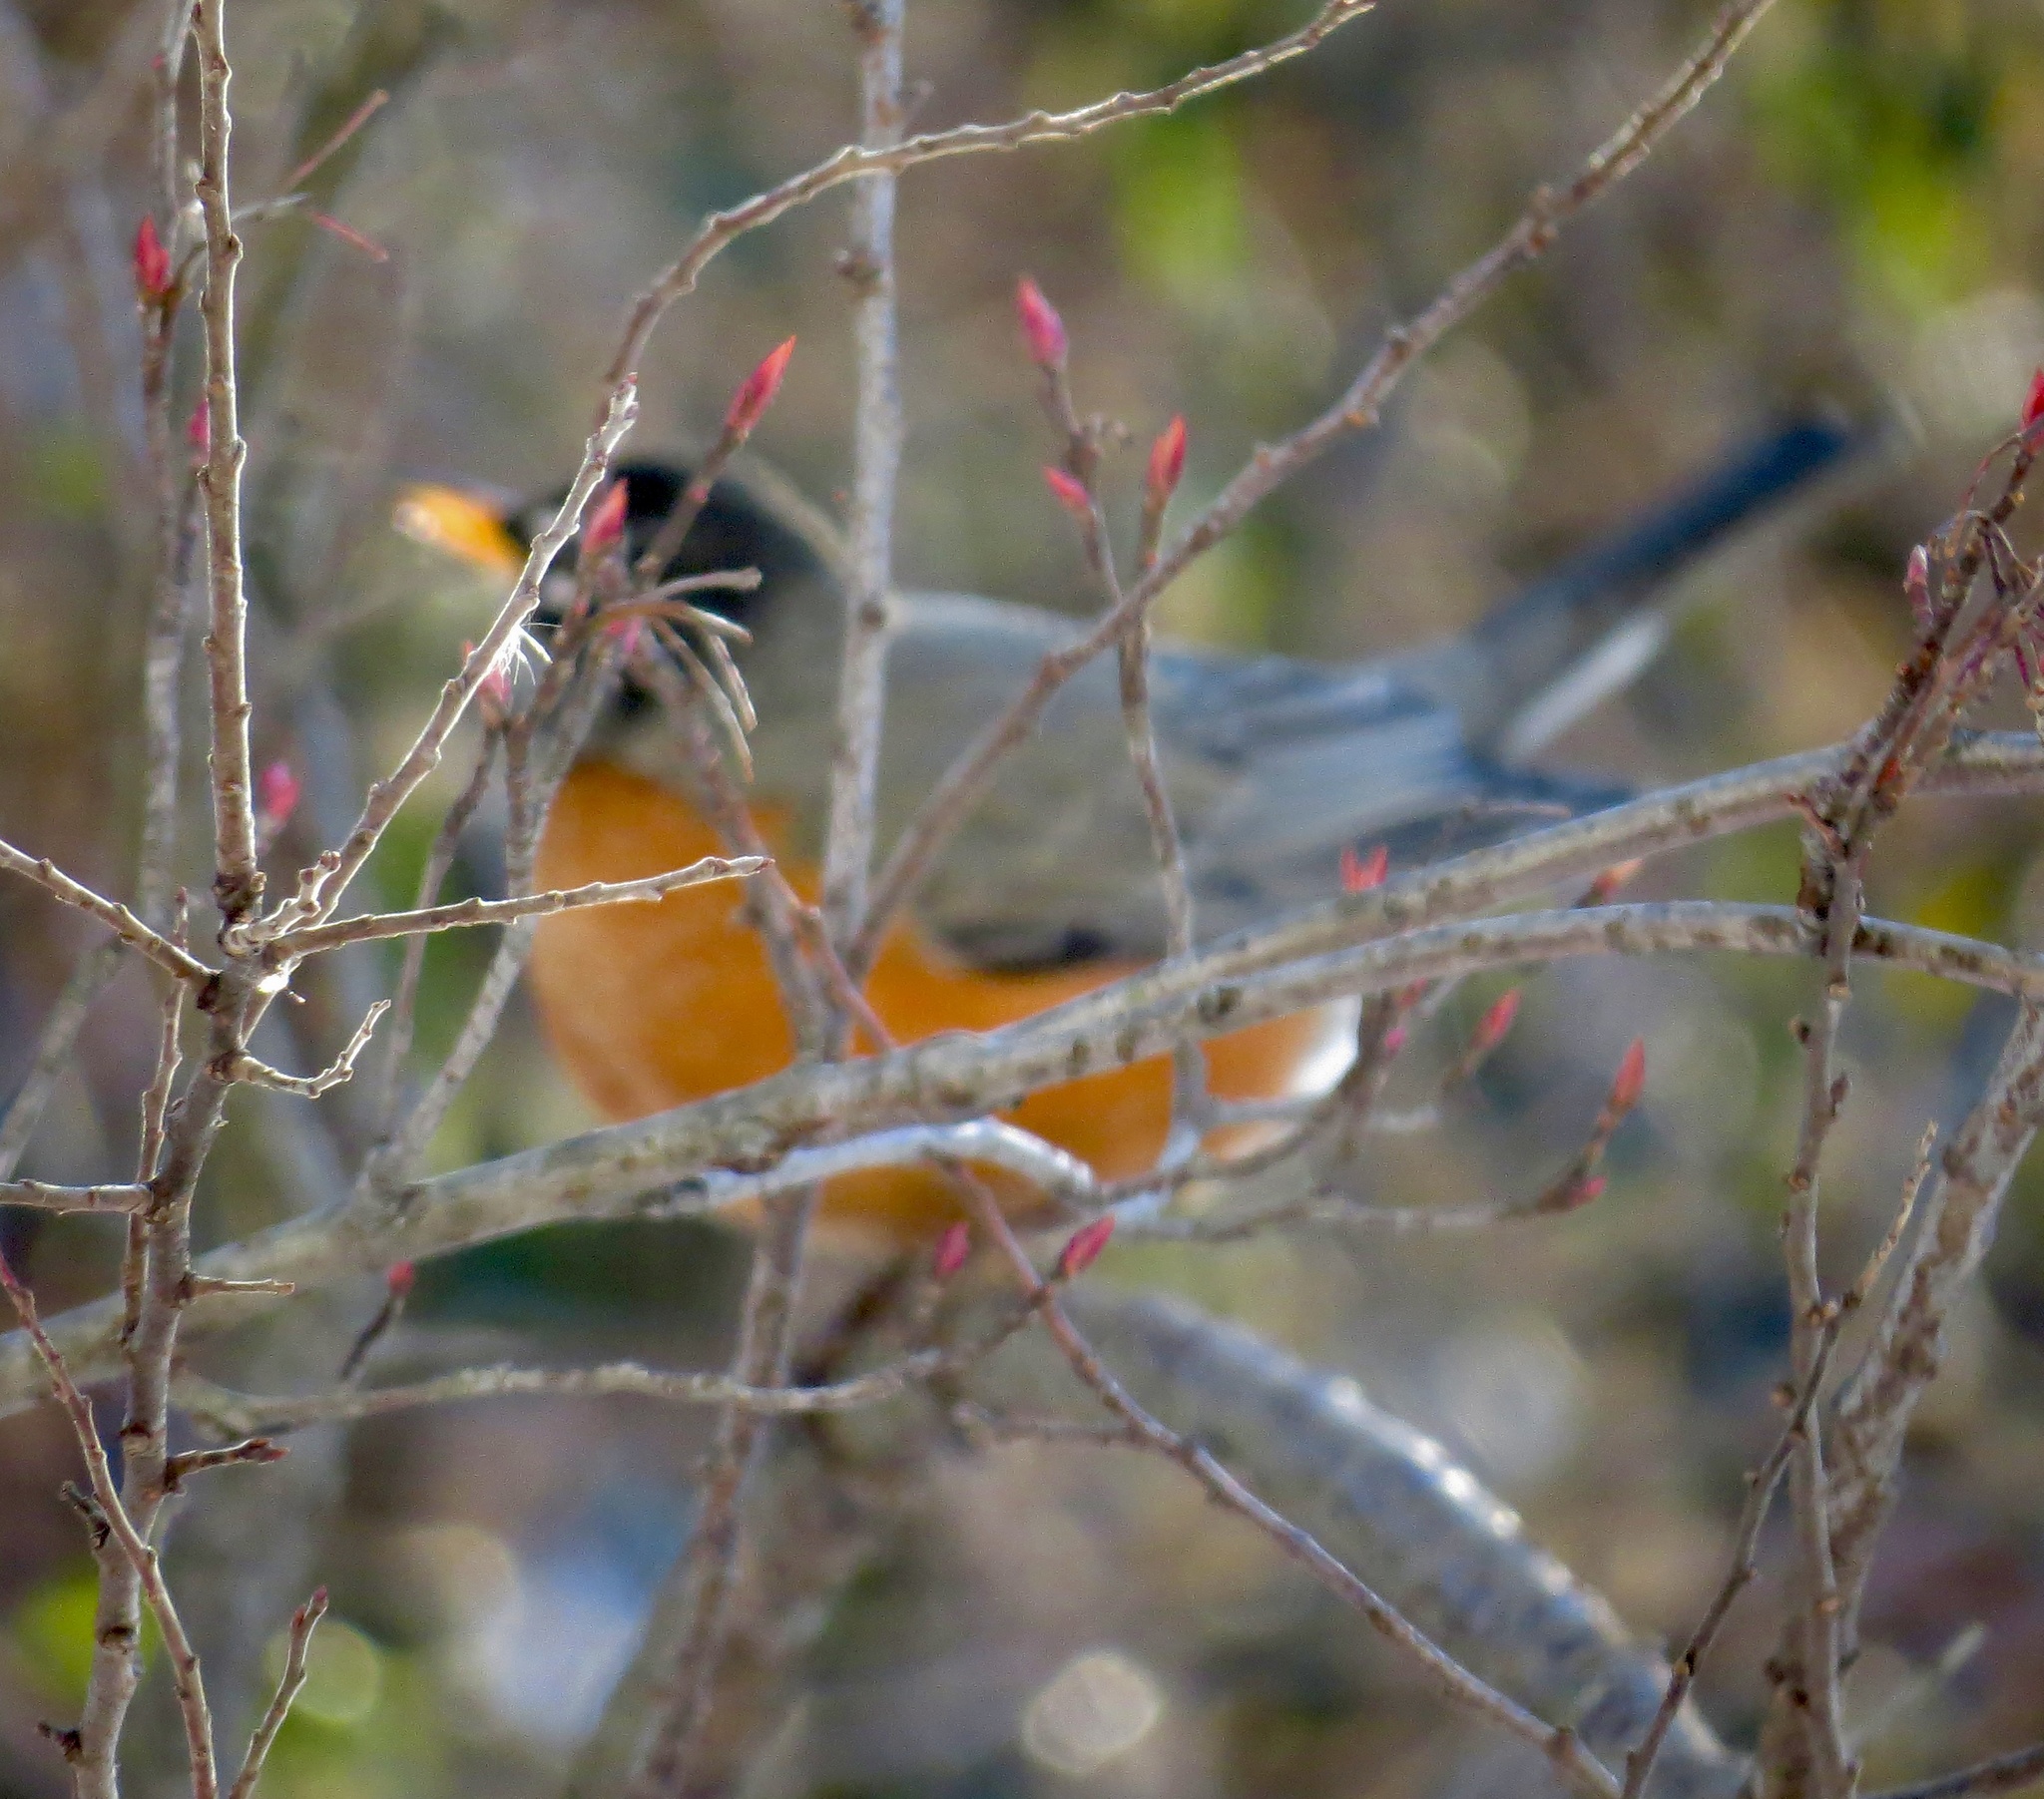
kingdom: Animalia
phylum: Chordata
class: Aves
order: Passeriformes
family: Turdidae
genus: Turdus
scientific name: Turdus migratorius
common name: American robin
